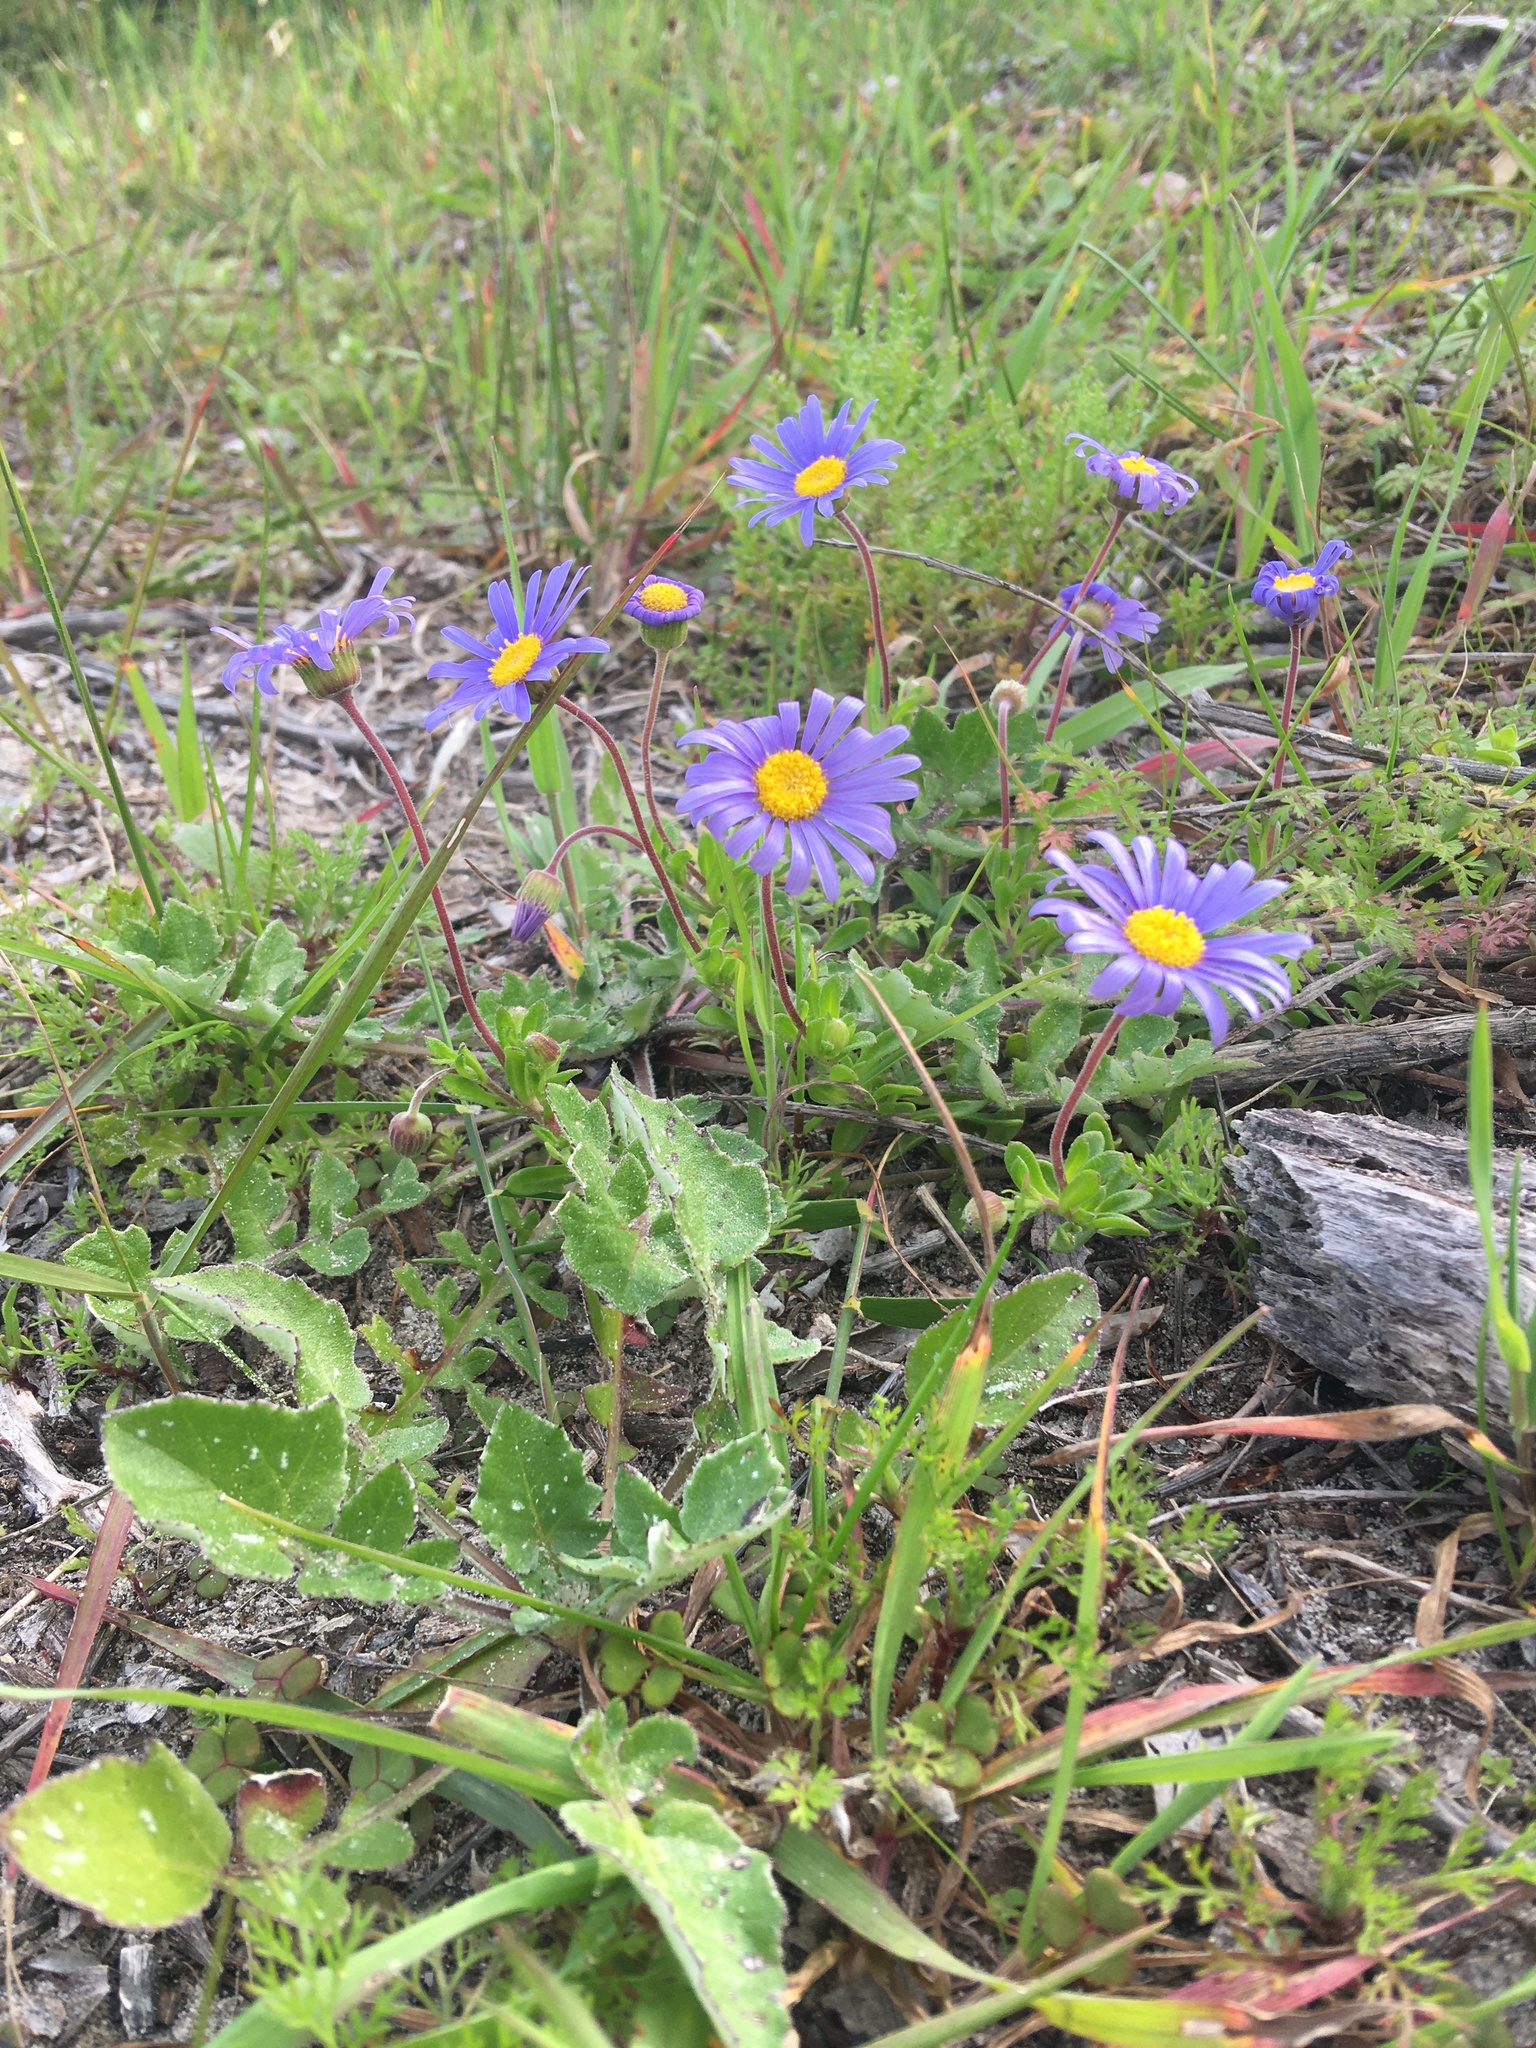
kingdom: Plantae
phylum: Tracheophyta
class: Magnoliopsida
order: Asterales
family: Asteraceae
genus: Felicia
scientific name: Felicia amoena
